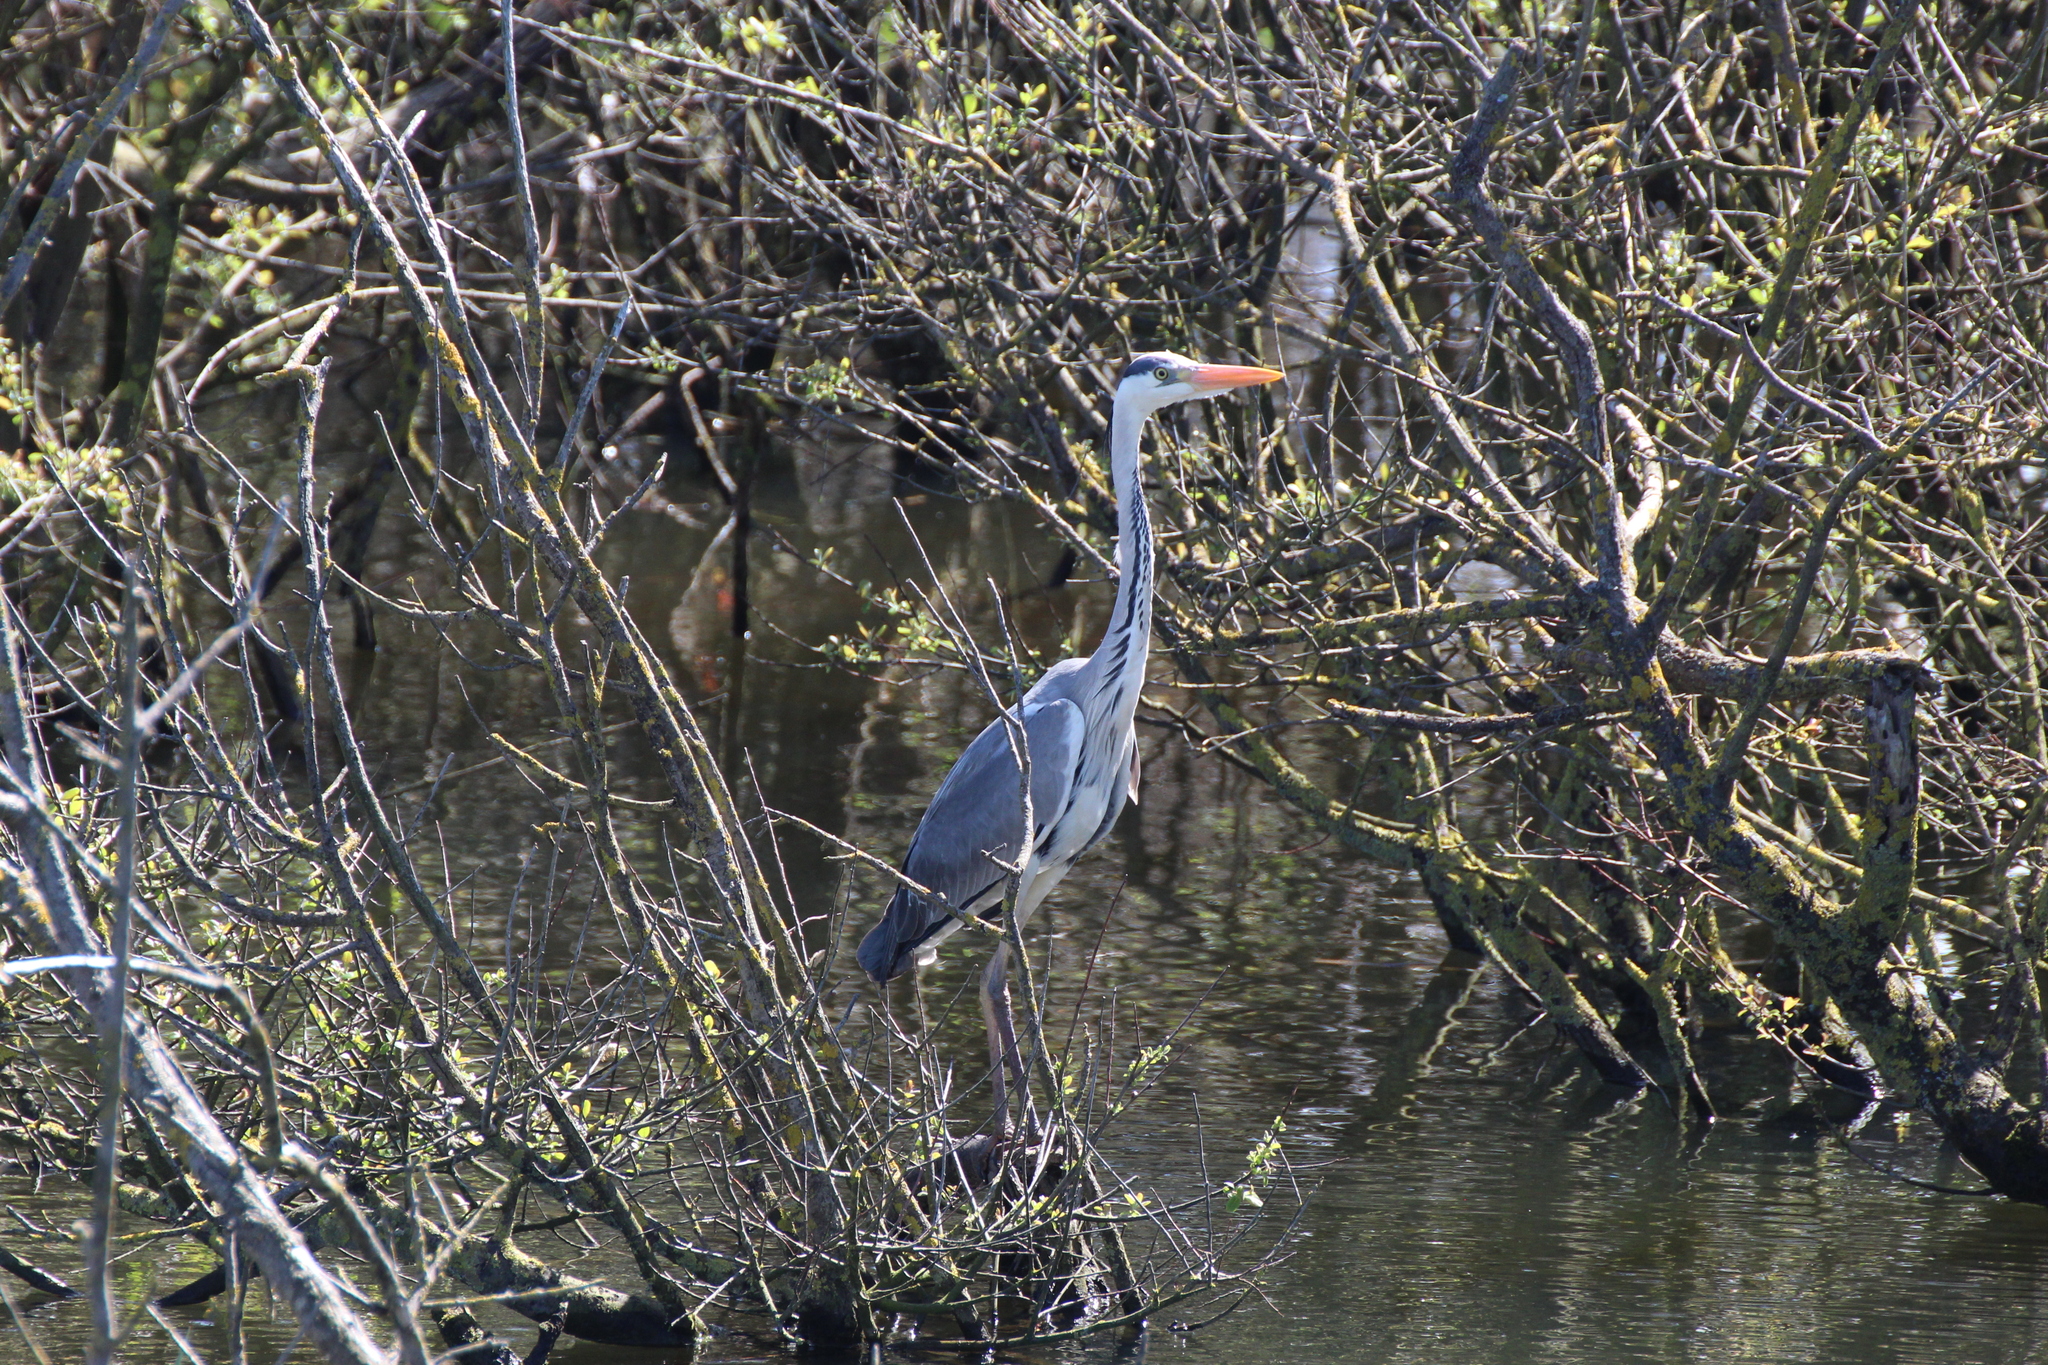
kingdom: Animalia
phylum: Chordata
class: Aves
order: Pelecaniformes
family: Ardeidae
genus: Ardea
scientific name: Ardea cinerea
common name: Grey heron
